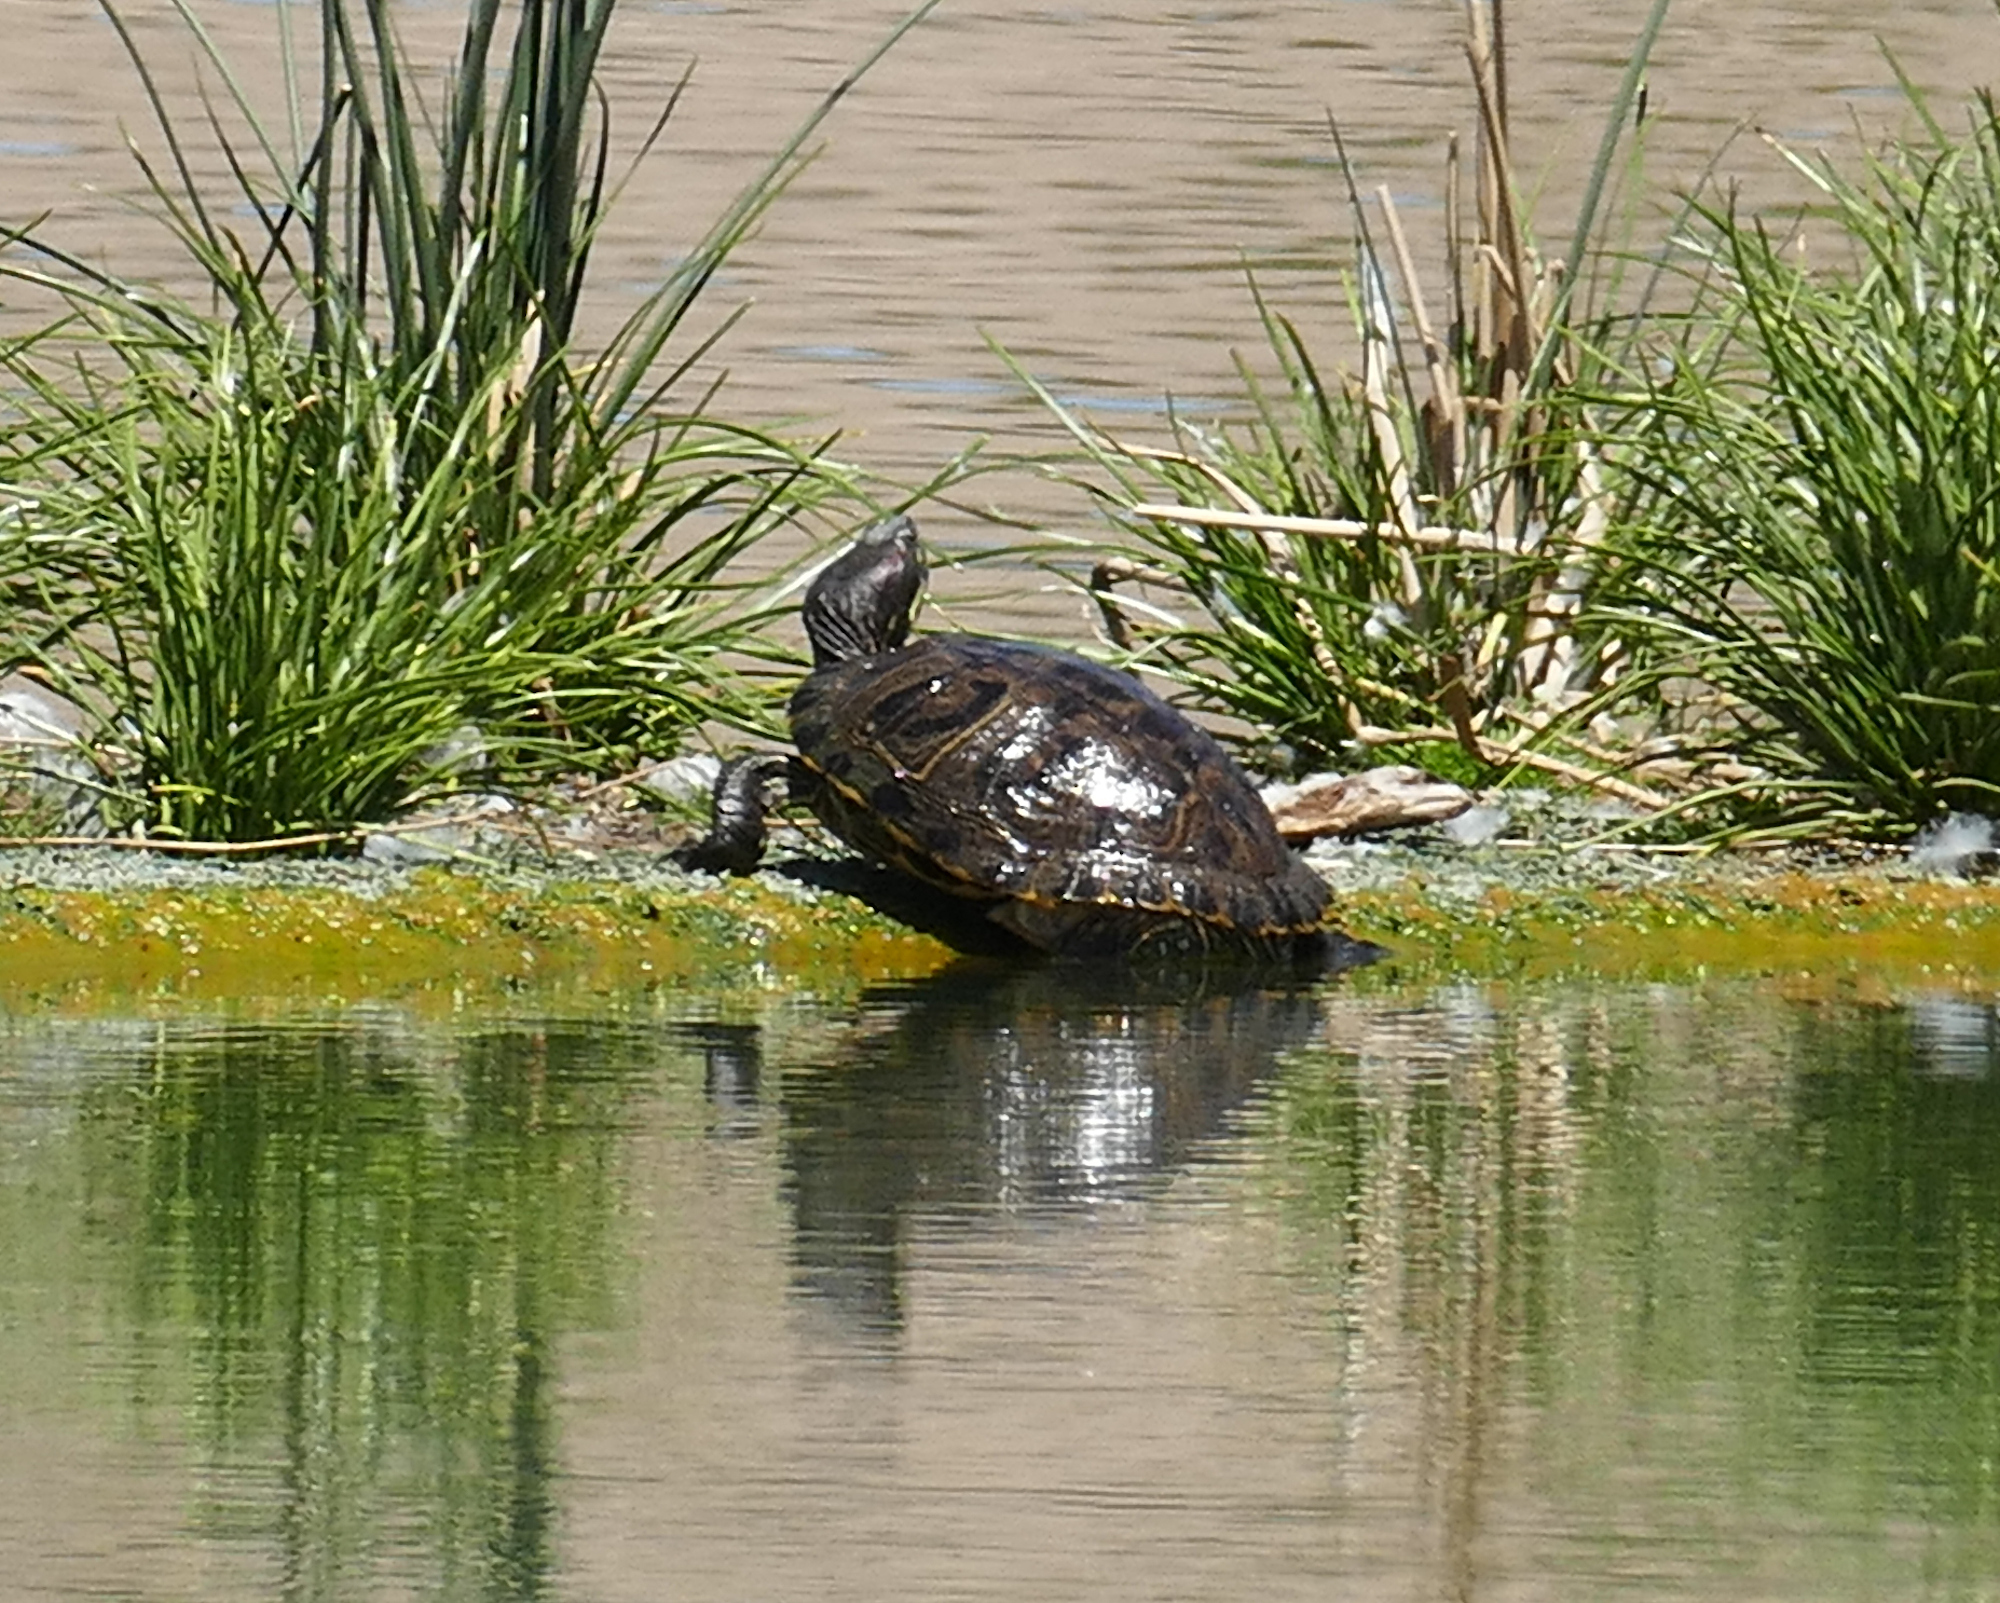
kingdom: Animalia
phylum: Chordata
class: Testudines
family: Emydidae
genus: Trachemys
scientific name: Trachemys scripta
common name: Slider
